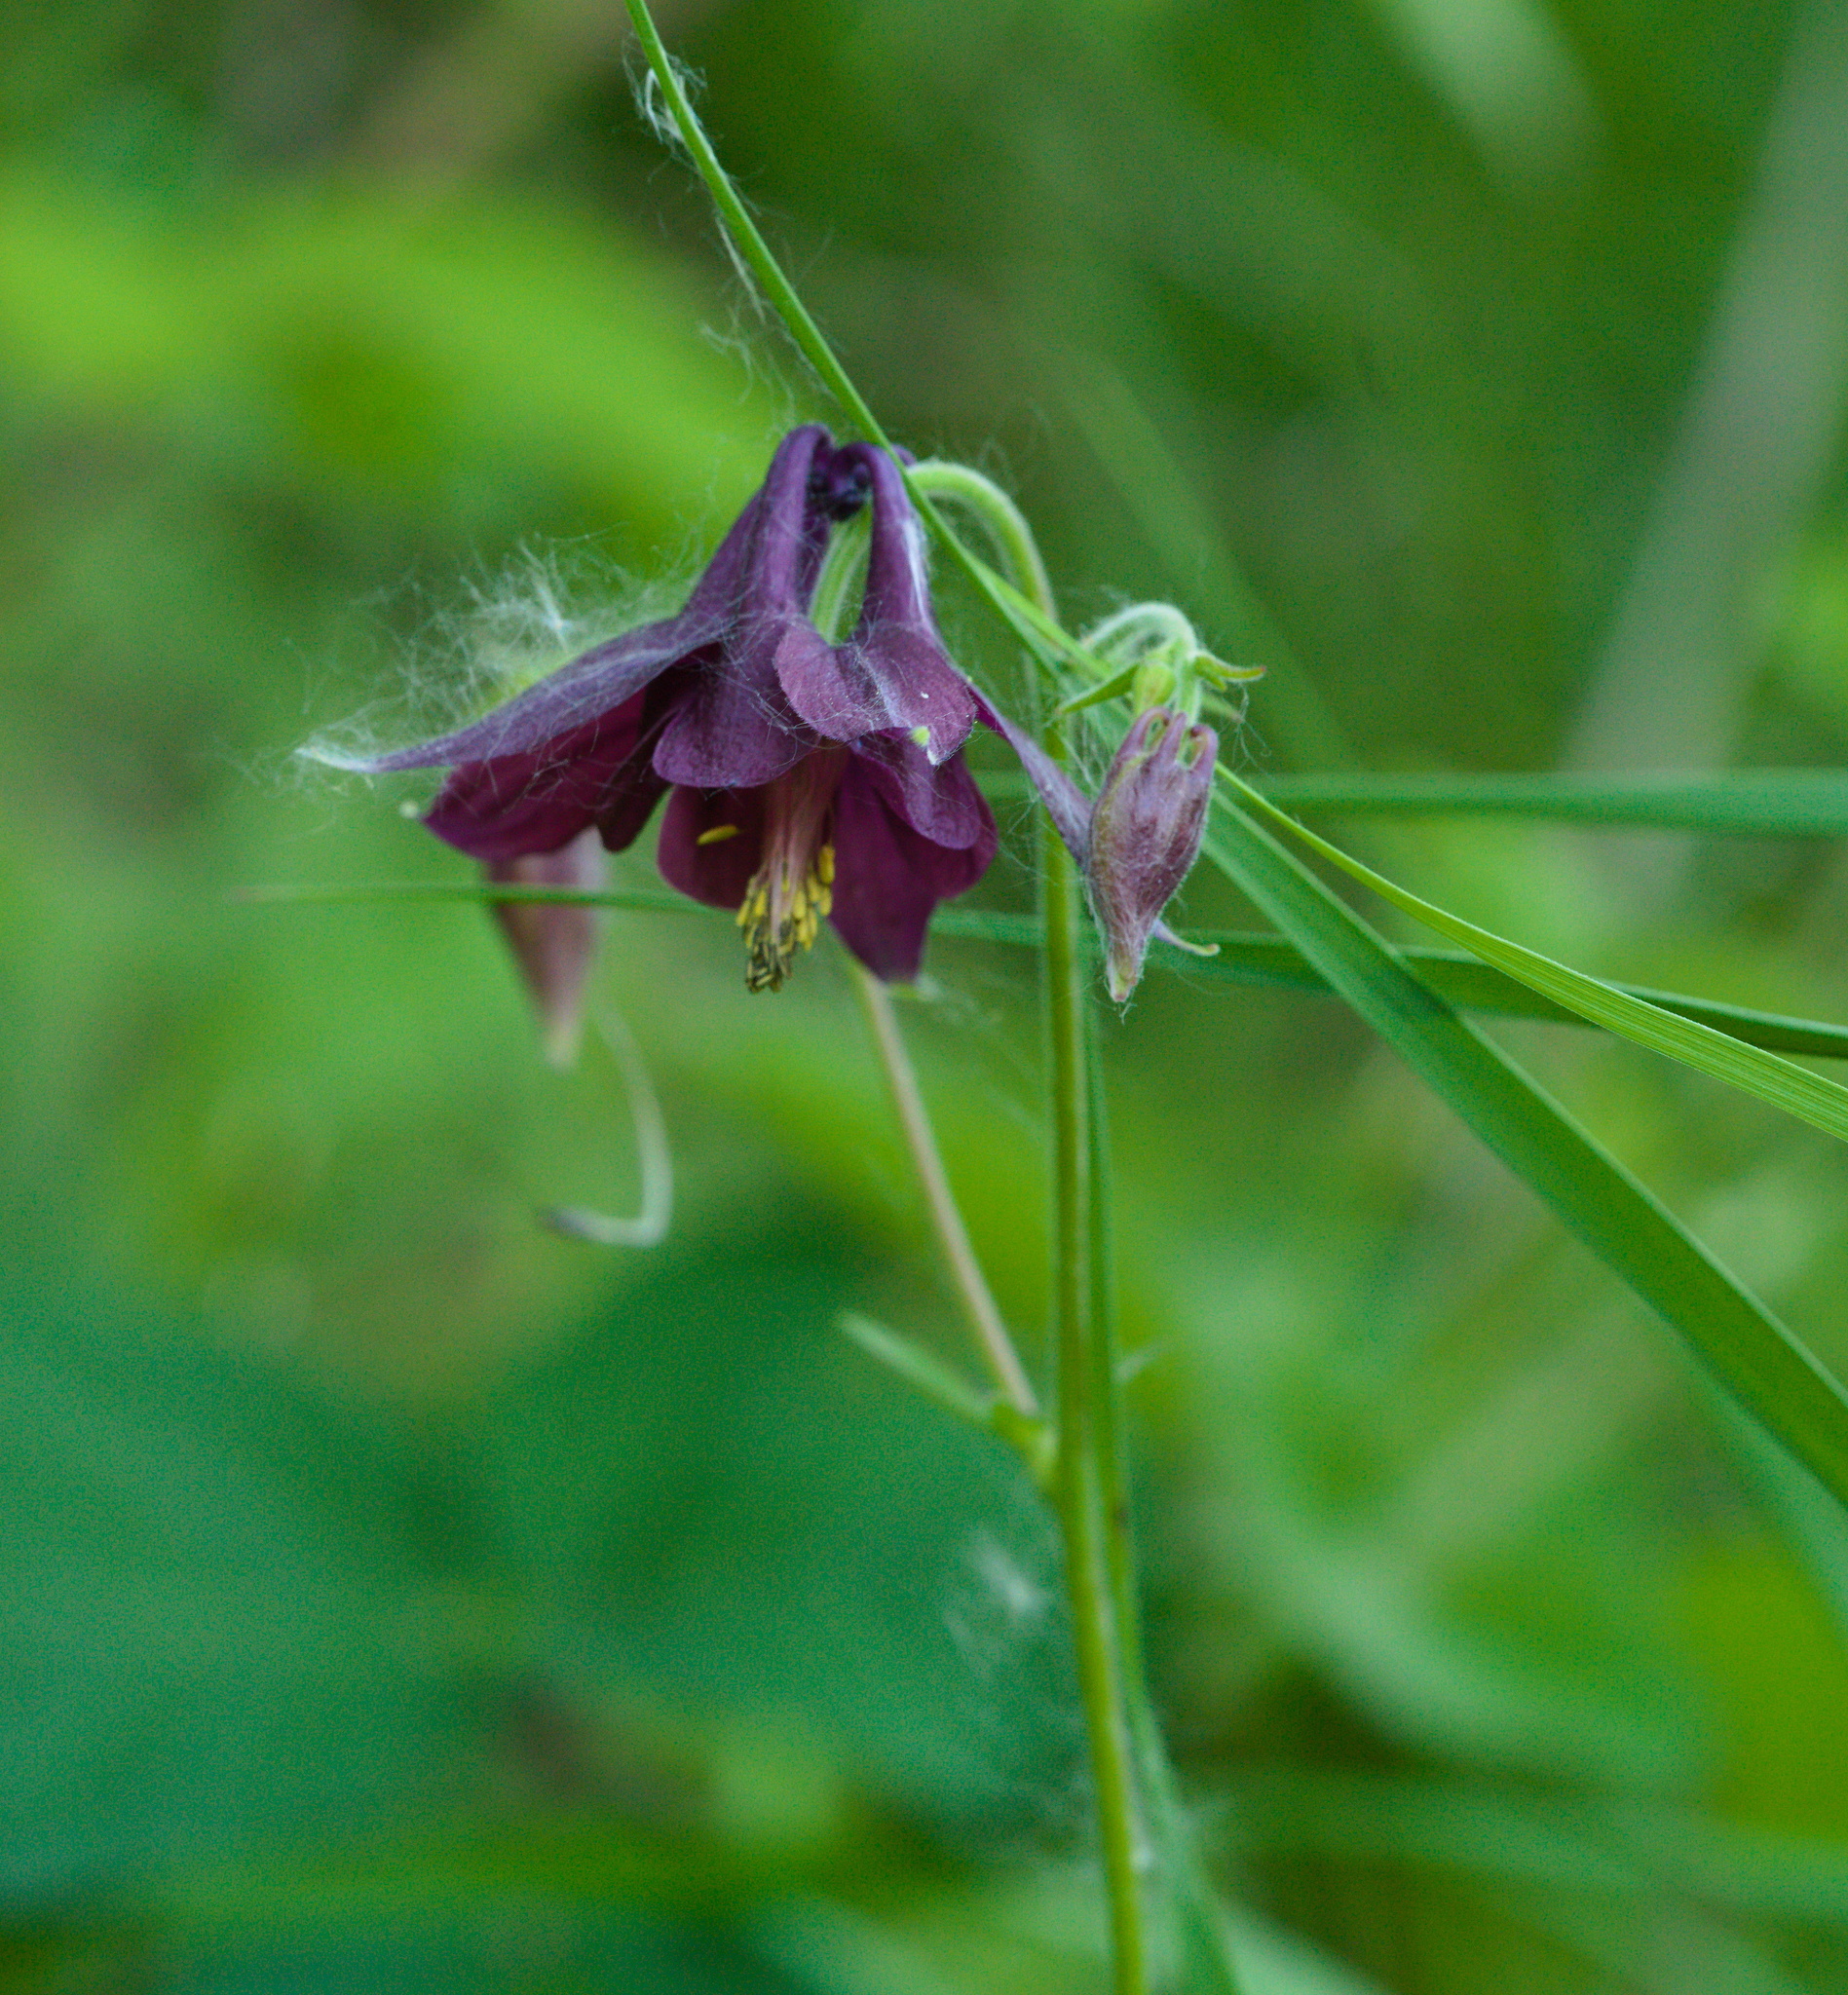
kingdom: Plantae
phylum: Tracheophyta
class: Magnoliopsida
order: Ranunculales
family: Ranunculaceae
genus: Aquilegia
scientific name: Aquilegia atrata
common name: Dark columbine
